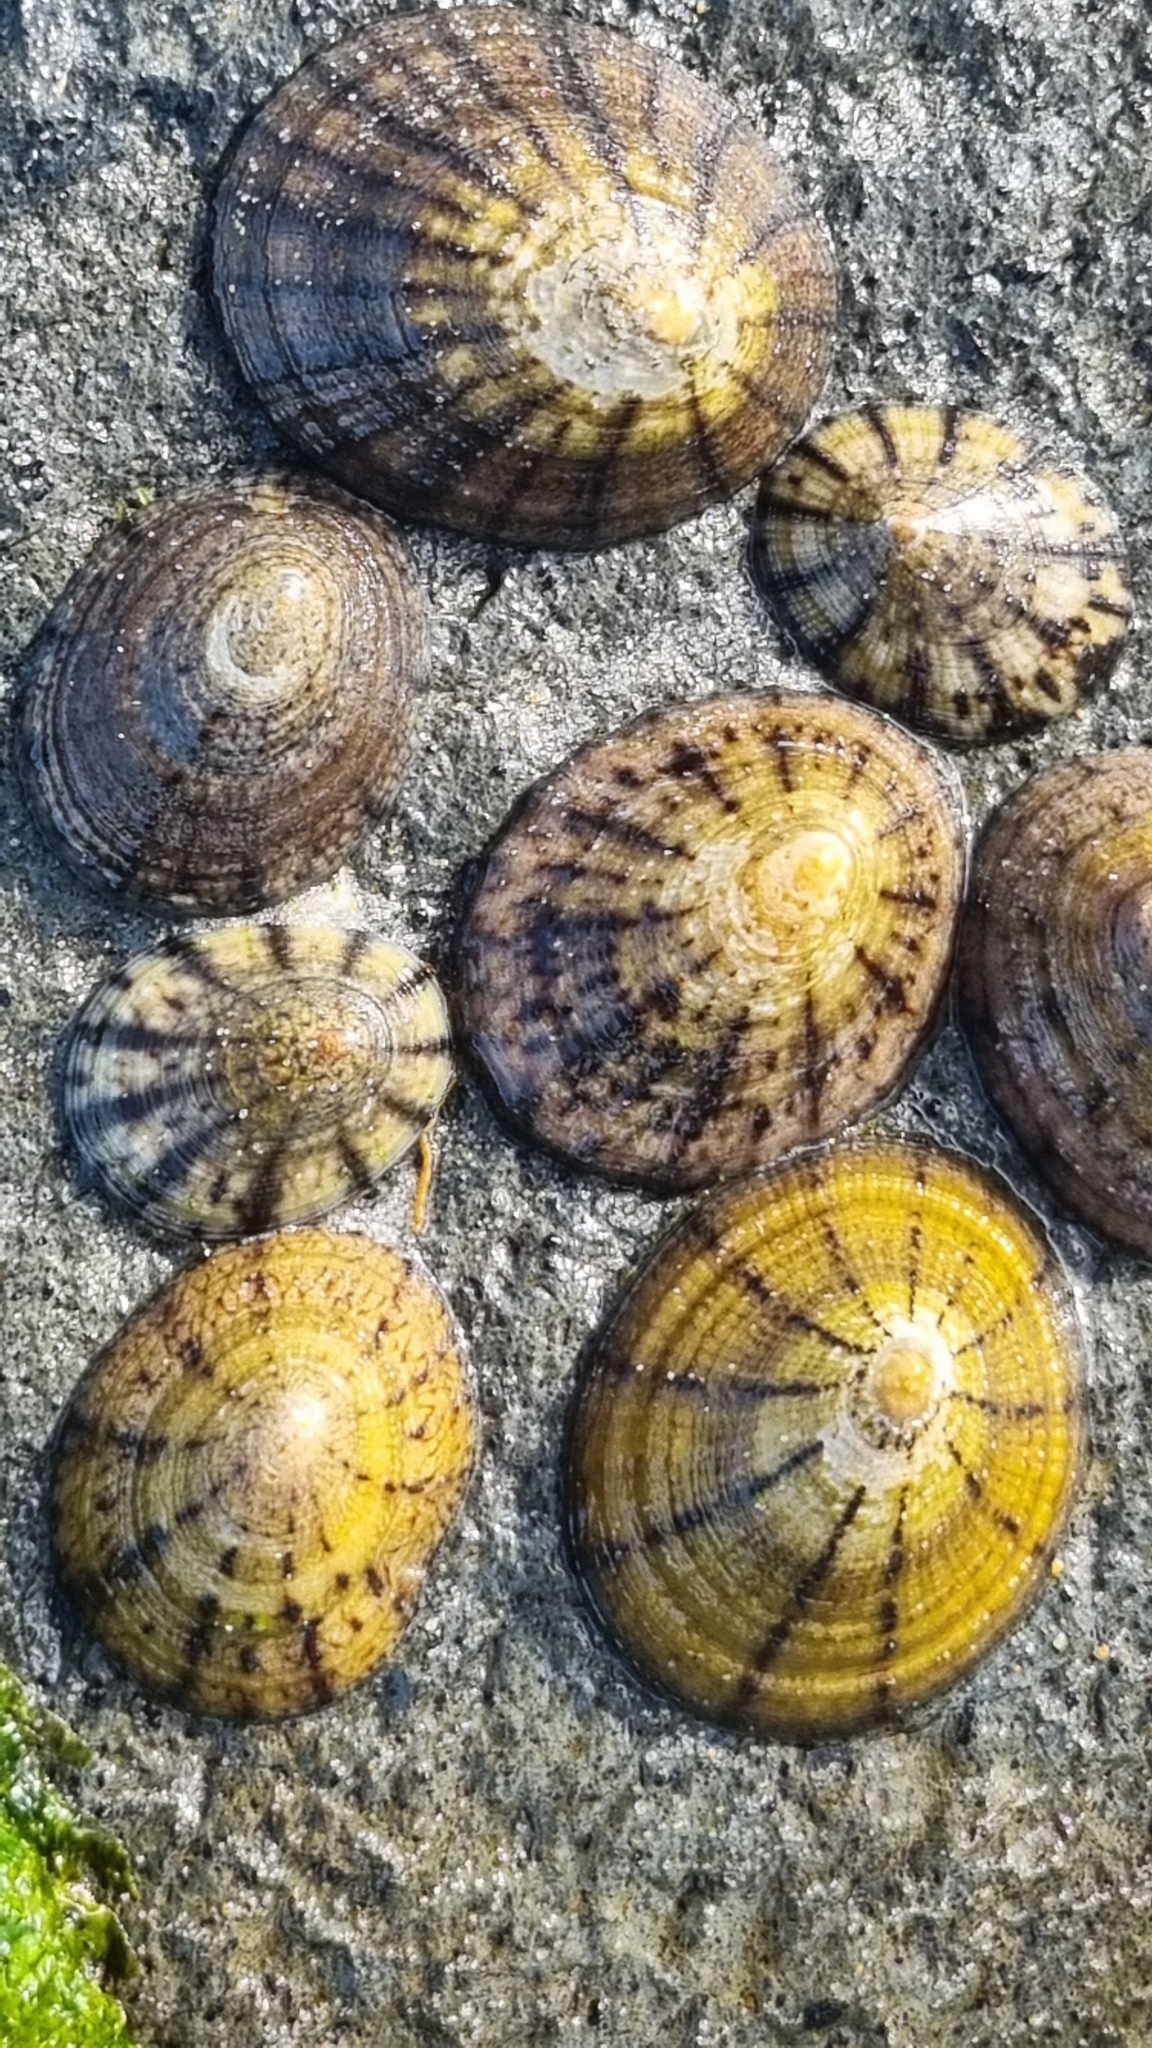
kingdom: Animalia
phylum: Mollusca
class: Gastropoda
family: Nacellidae
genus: Cellana
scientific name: Cellana radians
